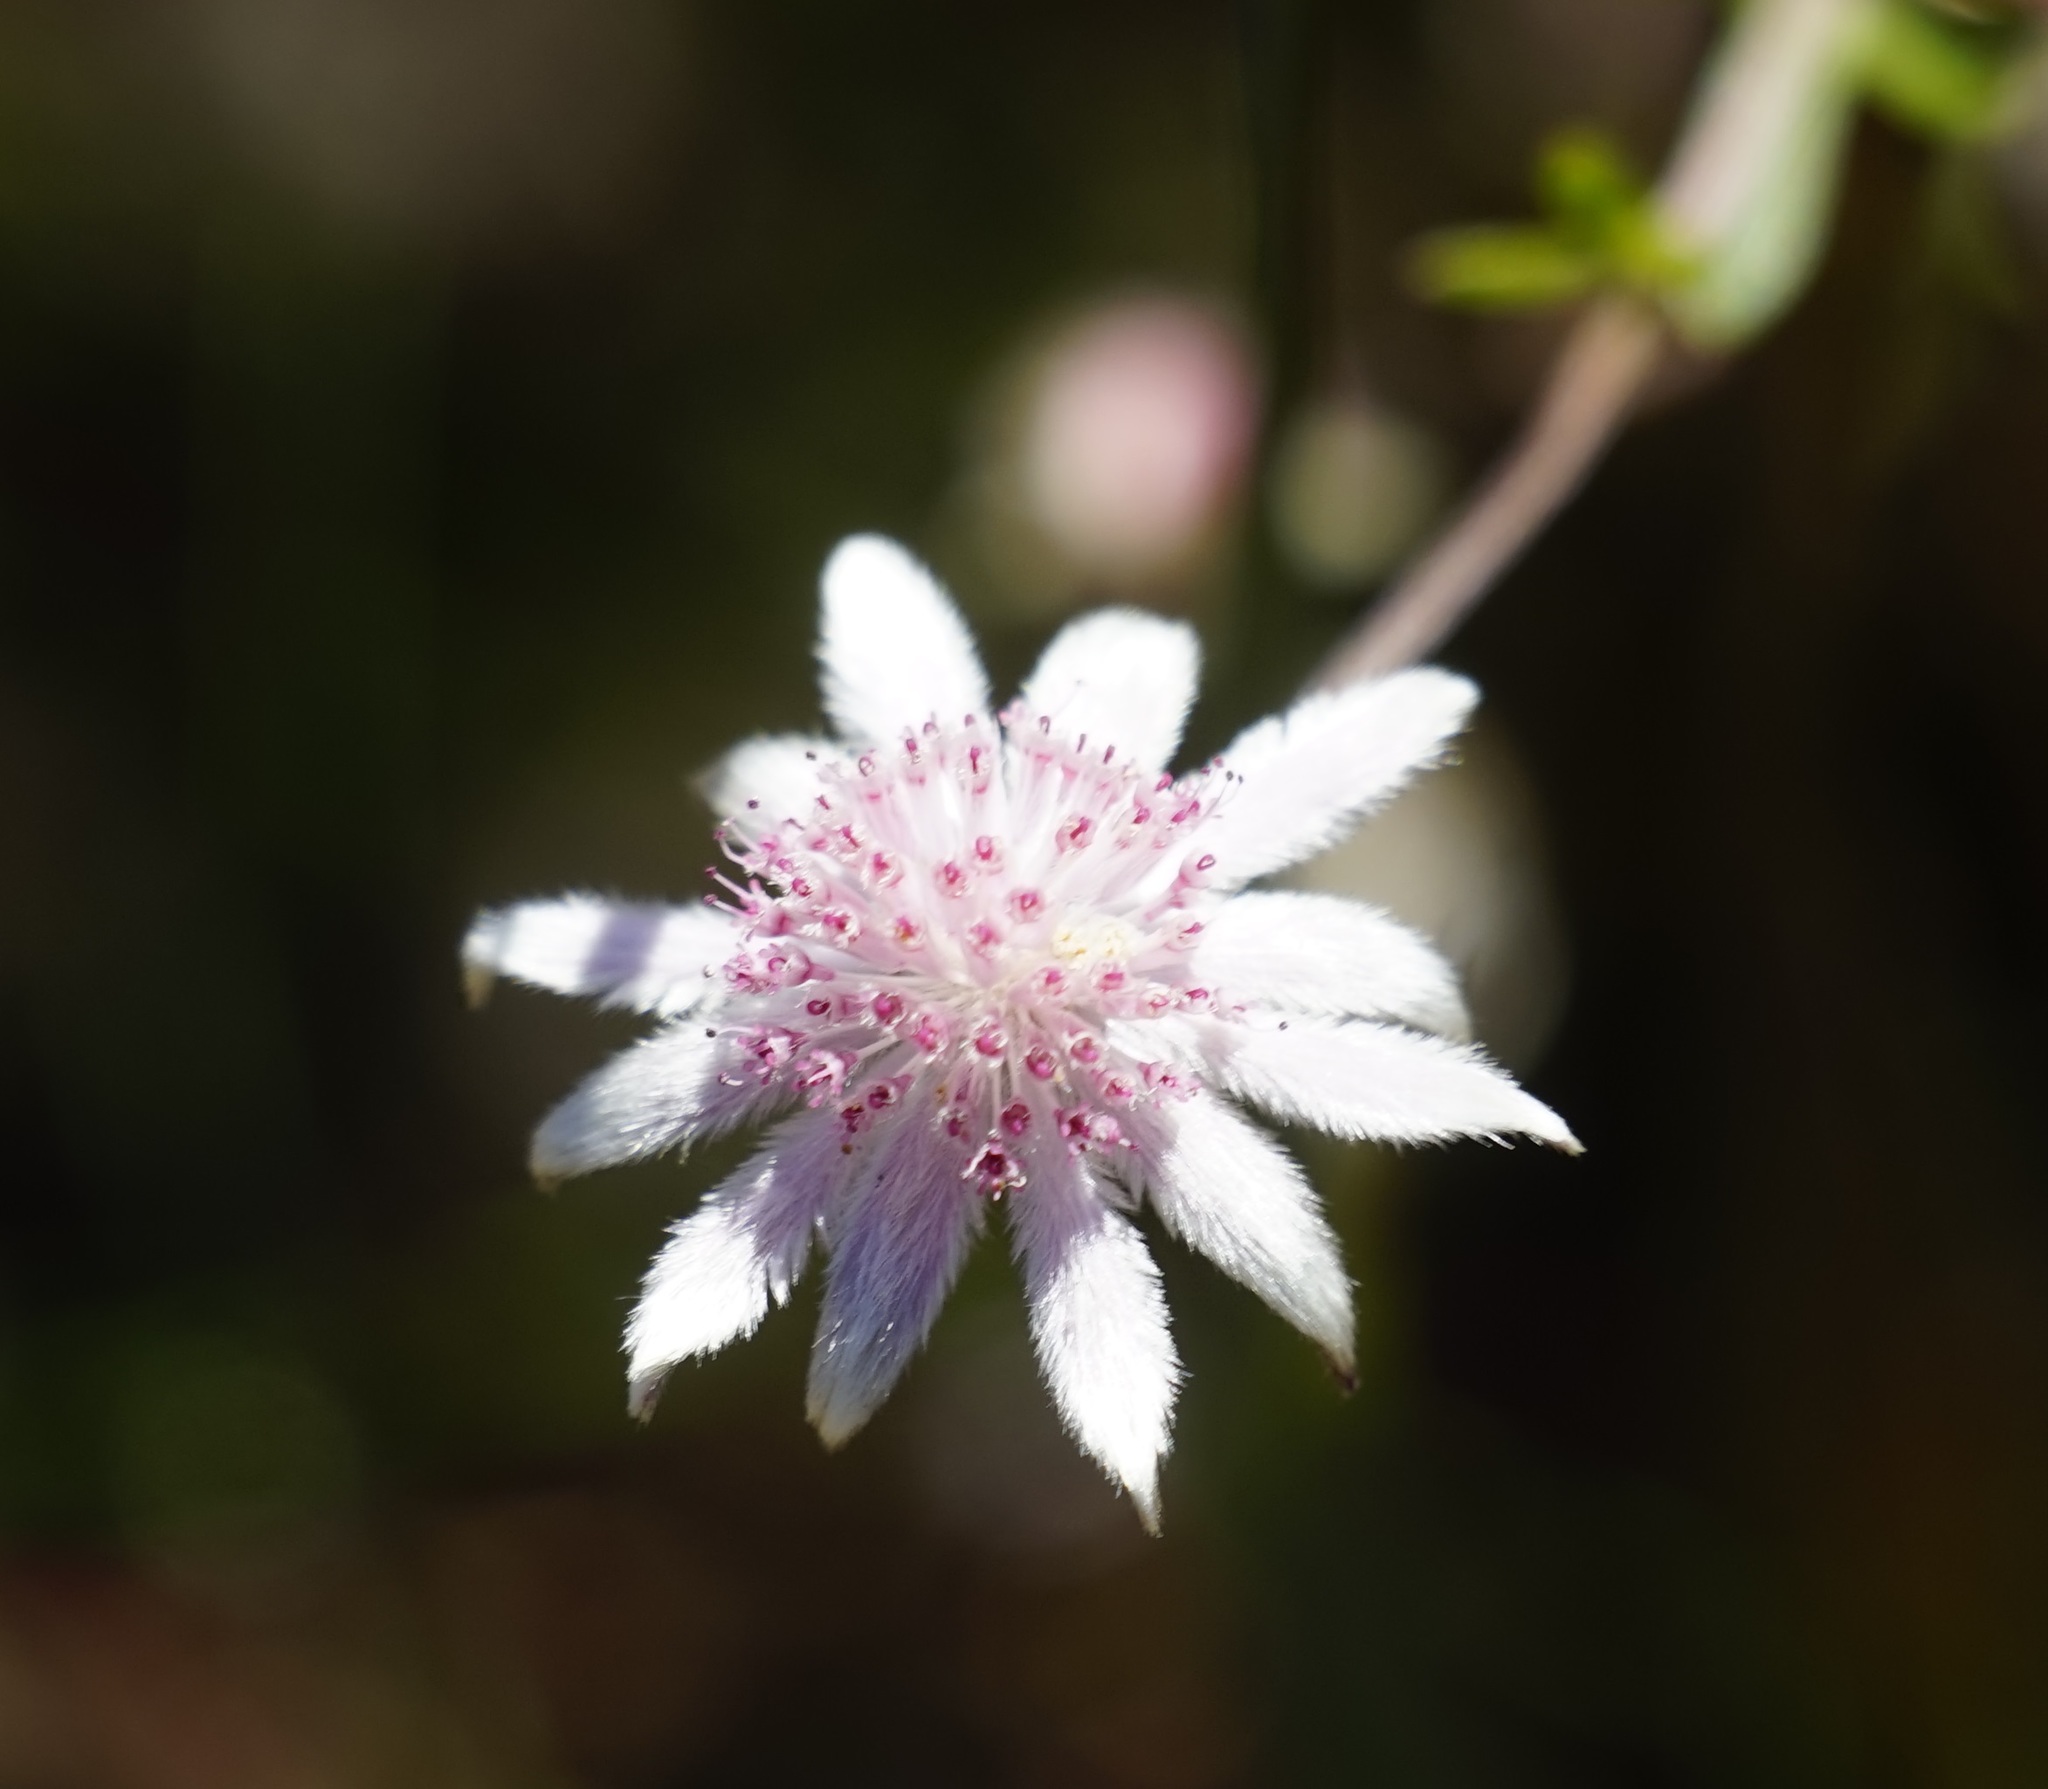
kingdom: Plantae
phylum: Tracheophyta
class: Magnoliopsida
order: Apiales
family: Apiaceae
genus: Actinotus
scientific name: Actinotus forsythii
